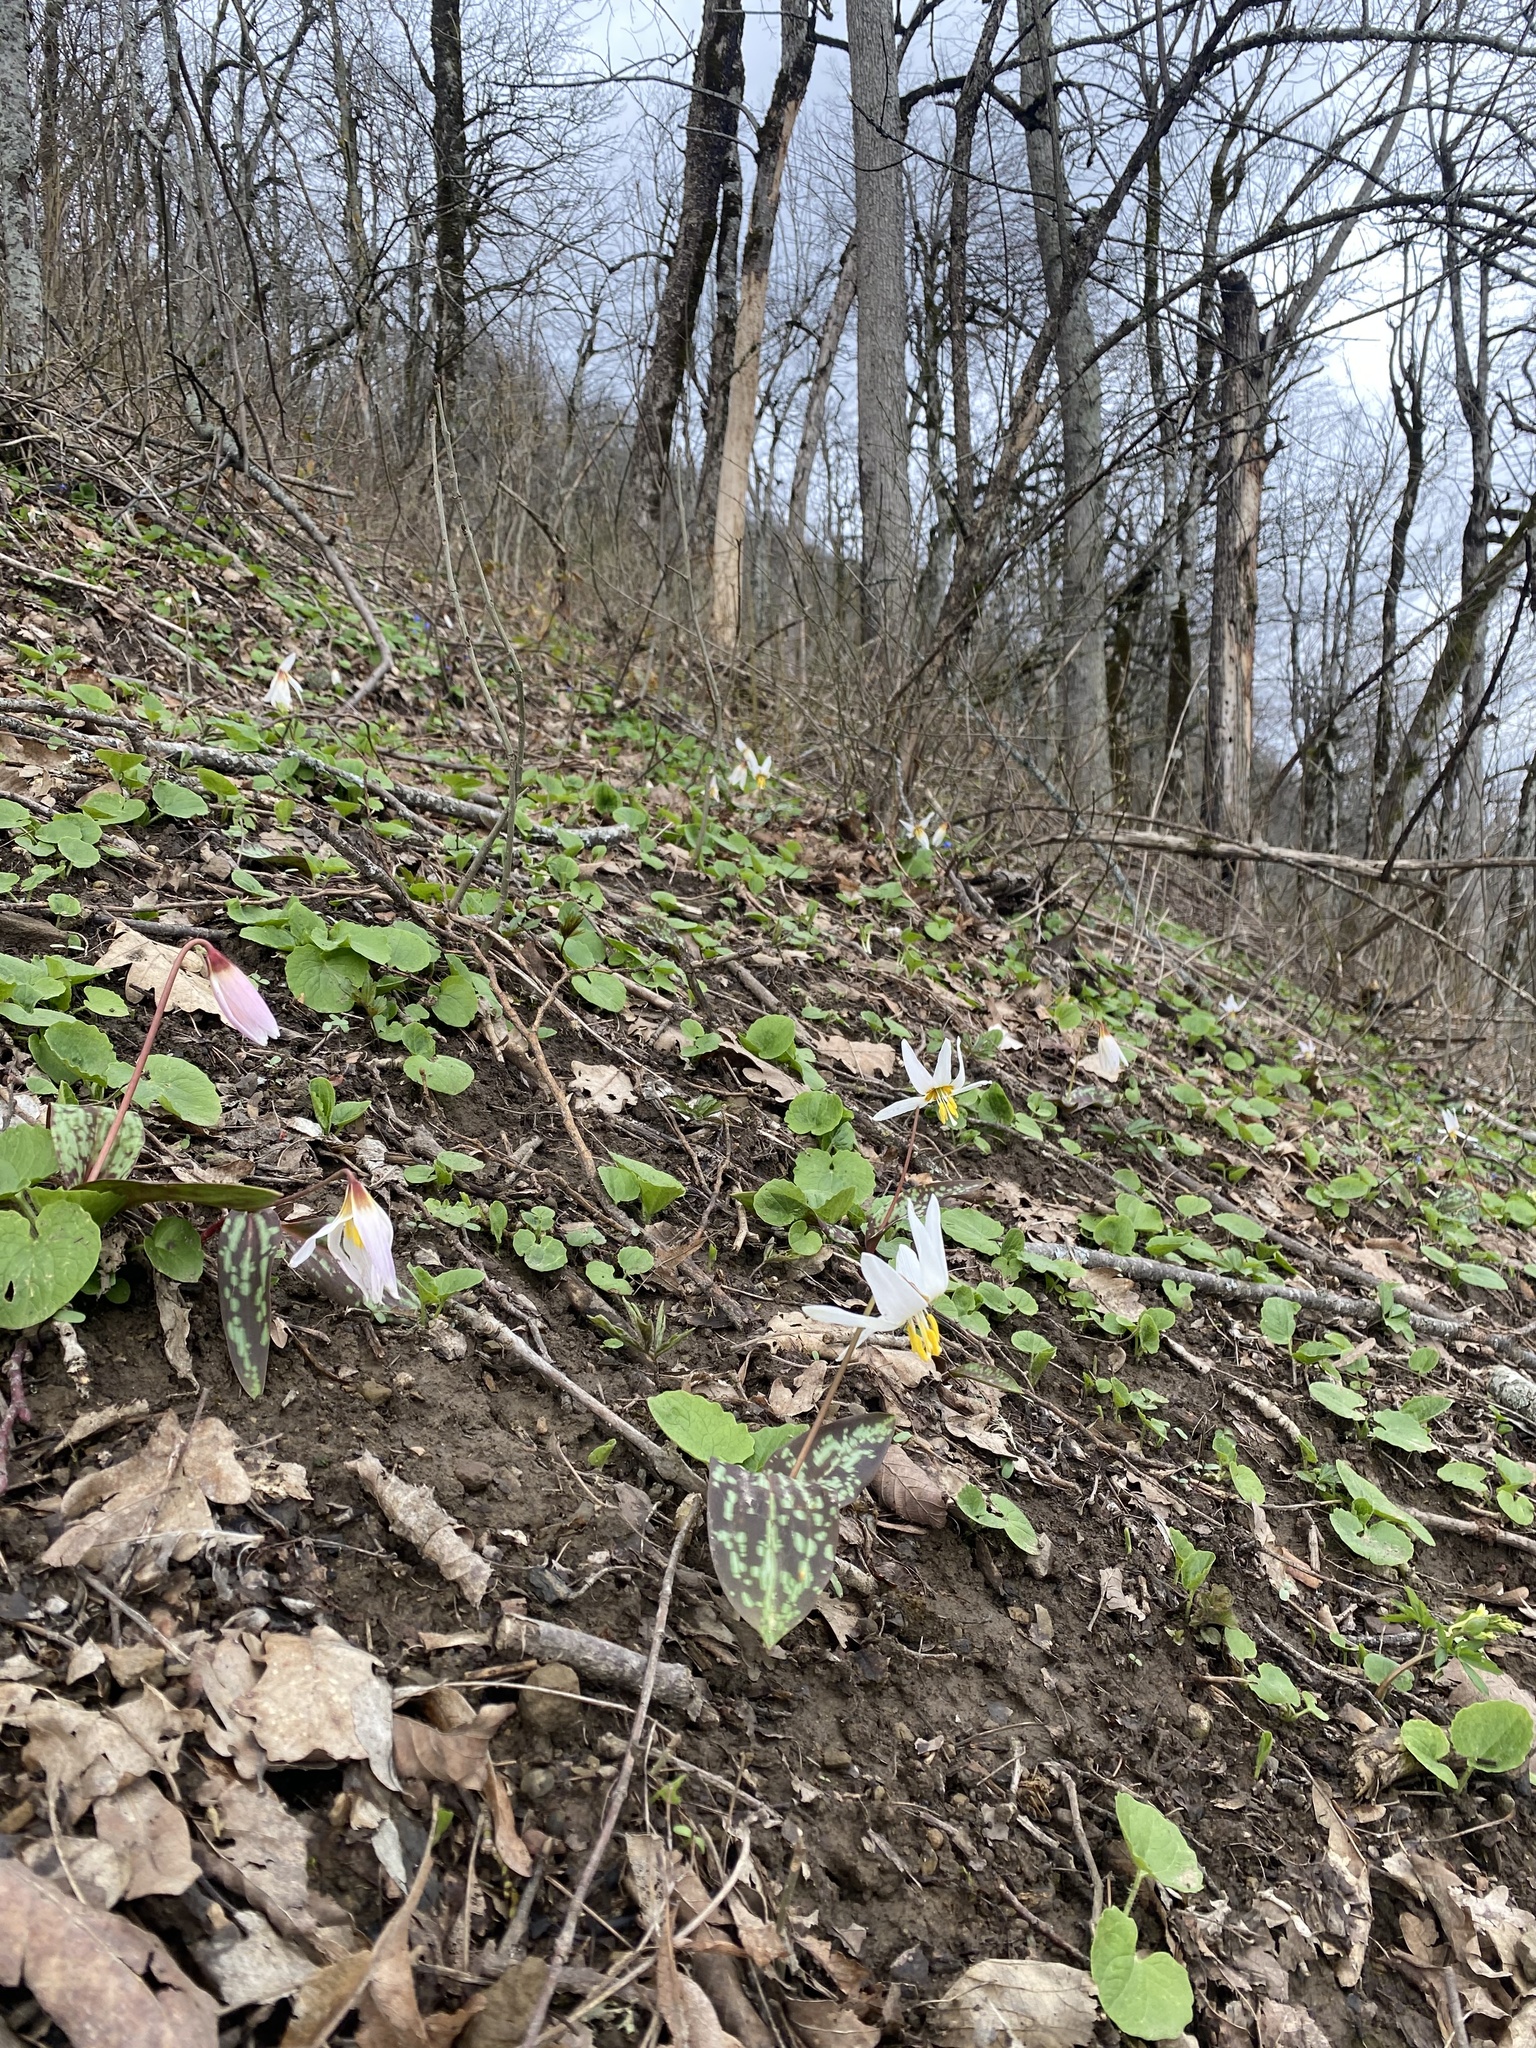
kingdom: Plantae
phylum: Tracheophyta
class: Liliopsida
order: Liliales
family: Liliaceae
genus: Erythronium
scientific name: Erythronium caucasicum
